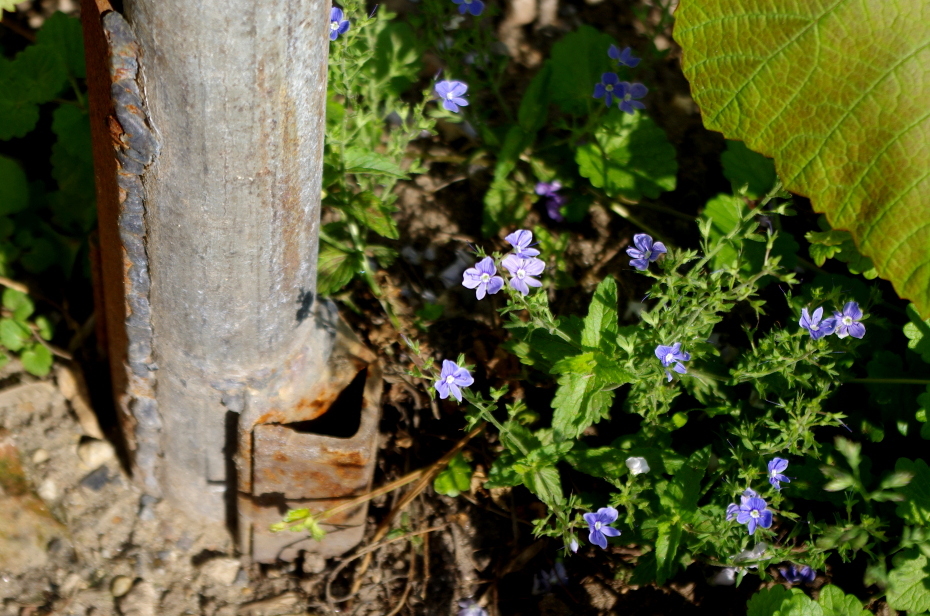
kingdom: Plantae
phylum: Tracheophyta
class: Magnoliopsida
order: Lamiales
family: Plantaginaceae
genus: Veronica
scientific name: Veronica chamaedrys
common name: Germander speedwell
